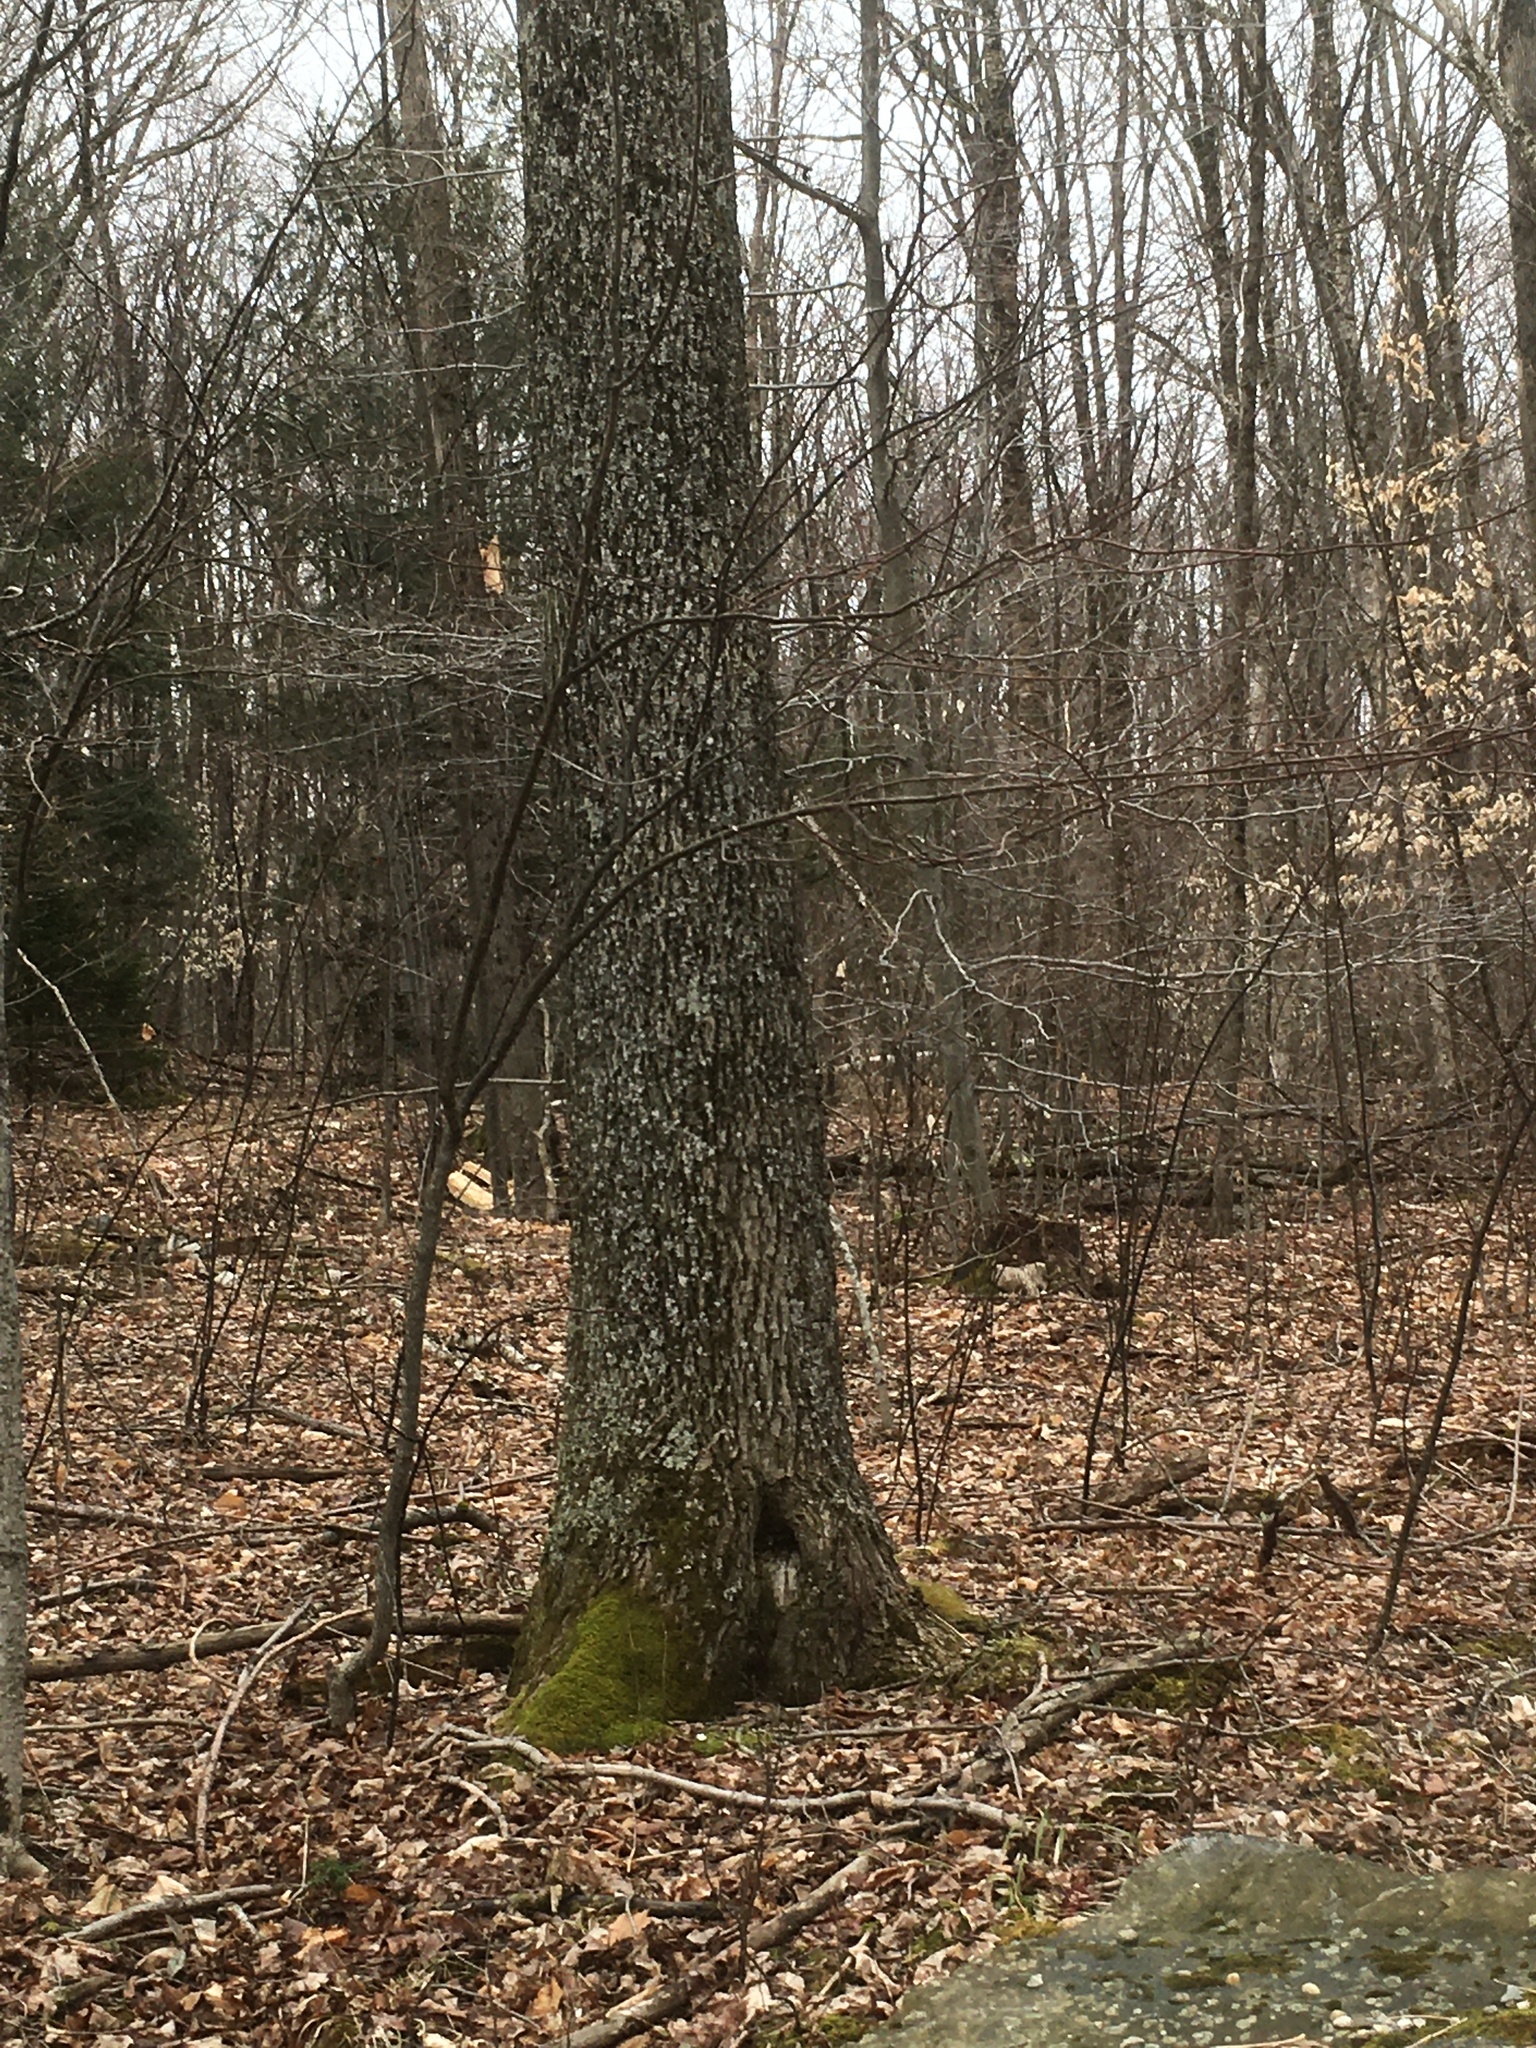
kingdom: Plantae
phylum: Tracheophyta
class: Magnoliopsida
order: Lamiales
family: Oleaceae
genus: Fraxinus
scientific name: Fraxinus americana
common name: White ash
